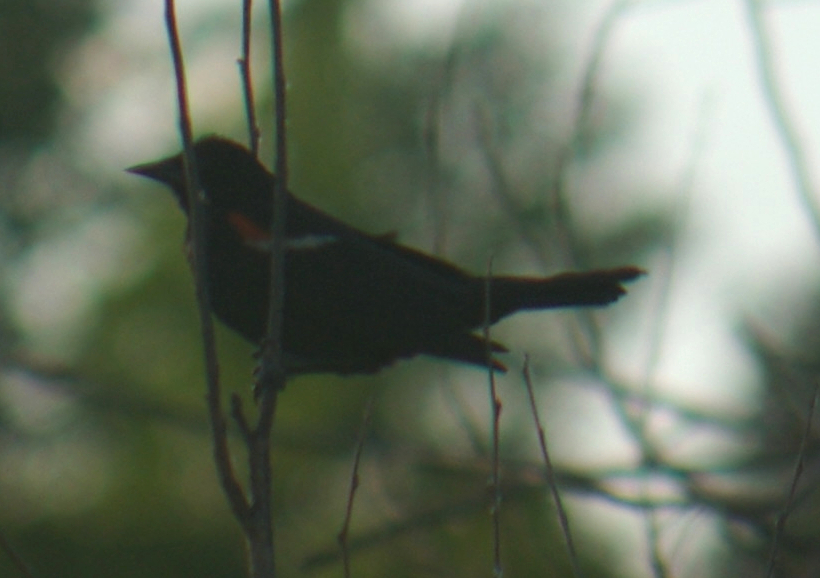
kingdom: Animalia
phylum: Chordata
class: Aves
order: Passeriformes
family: Icteridae
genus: Agelaius
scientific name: Agelaius phoeniceus
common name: Red-winged blackbird
